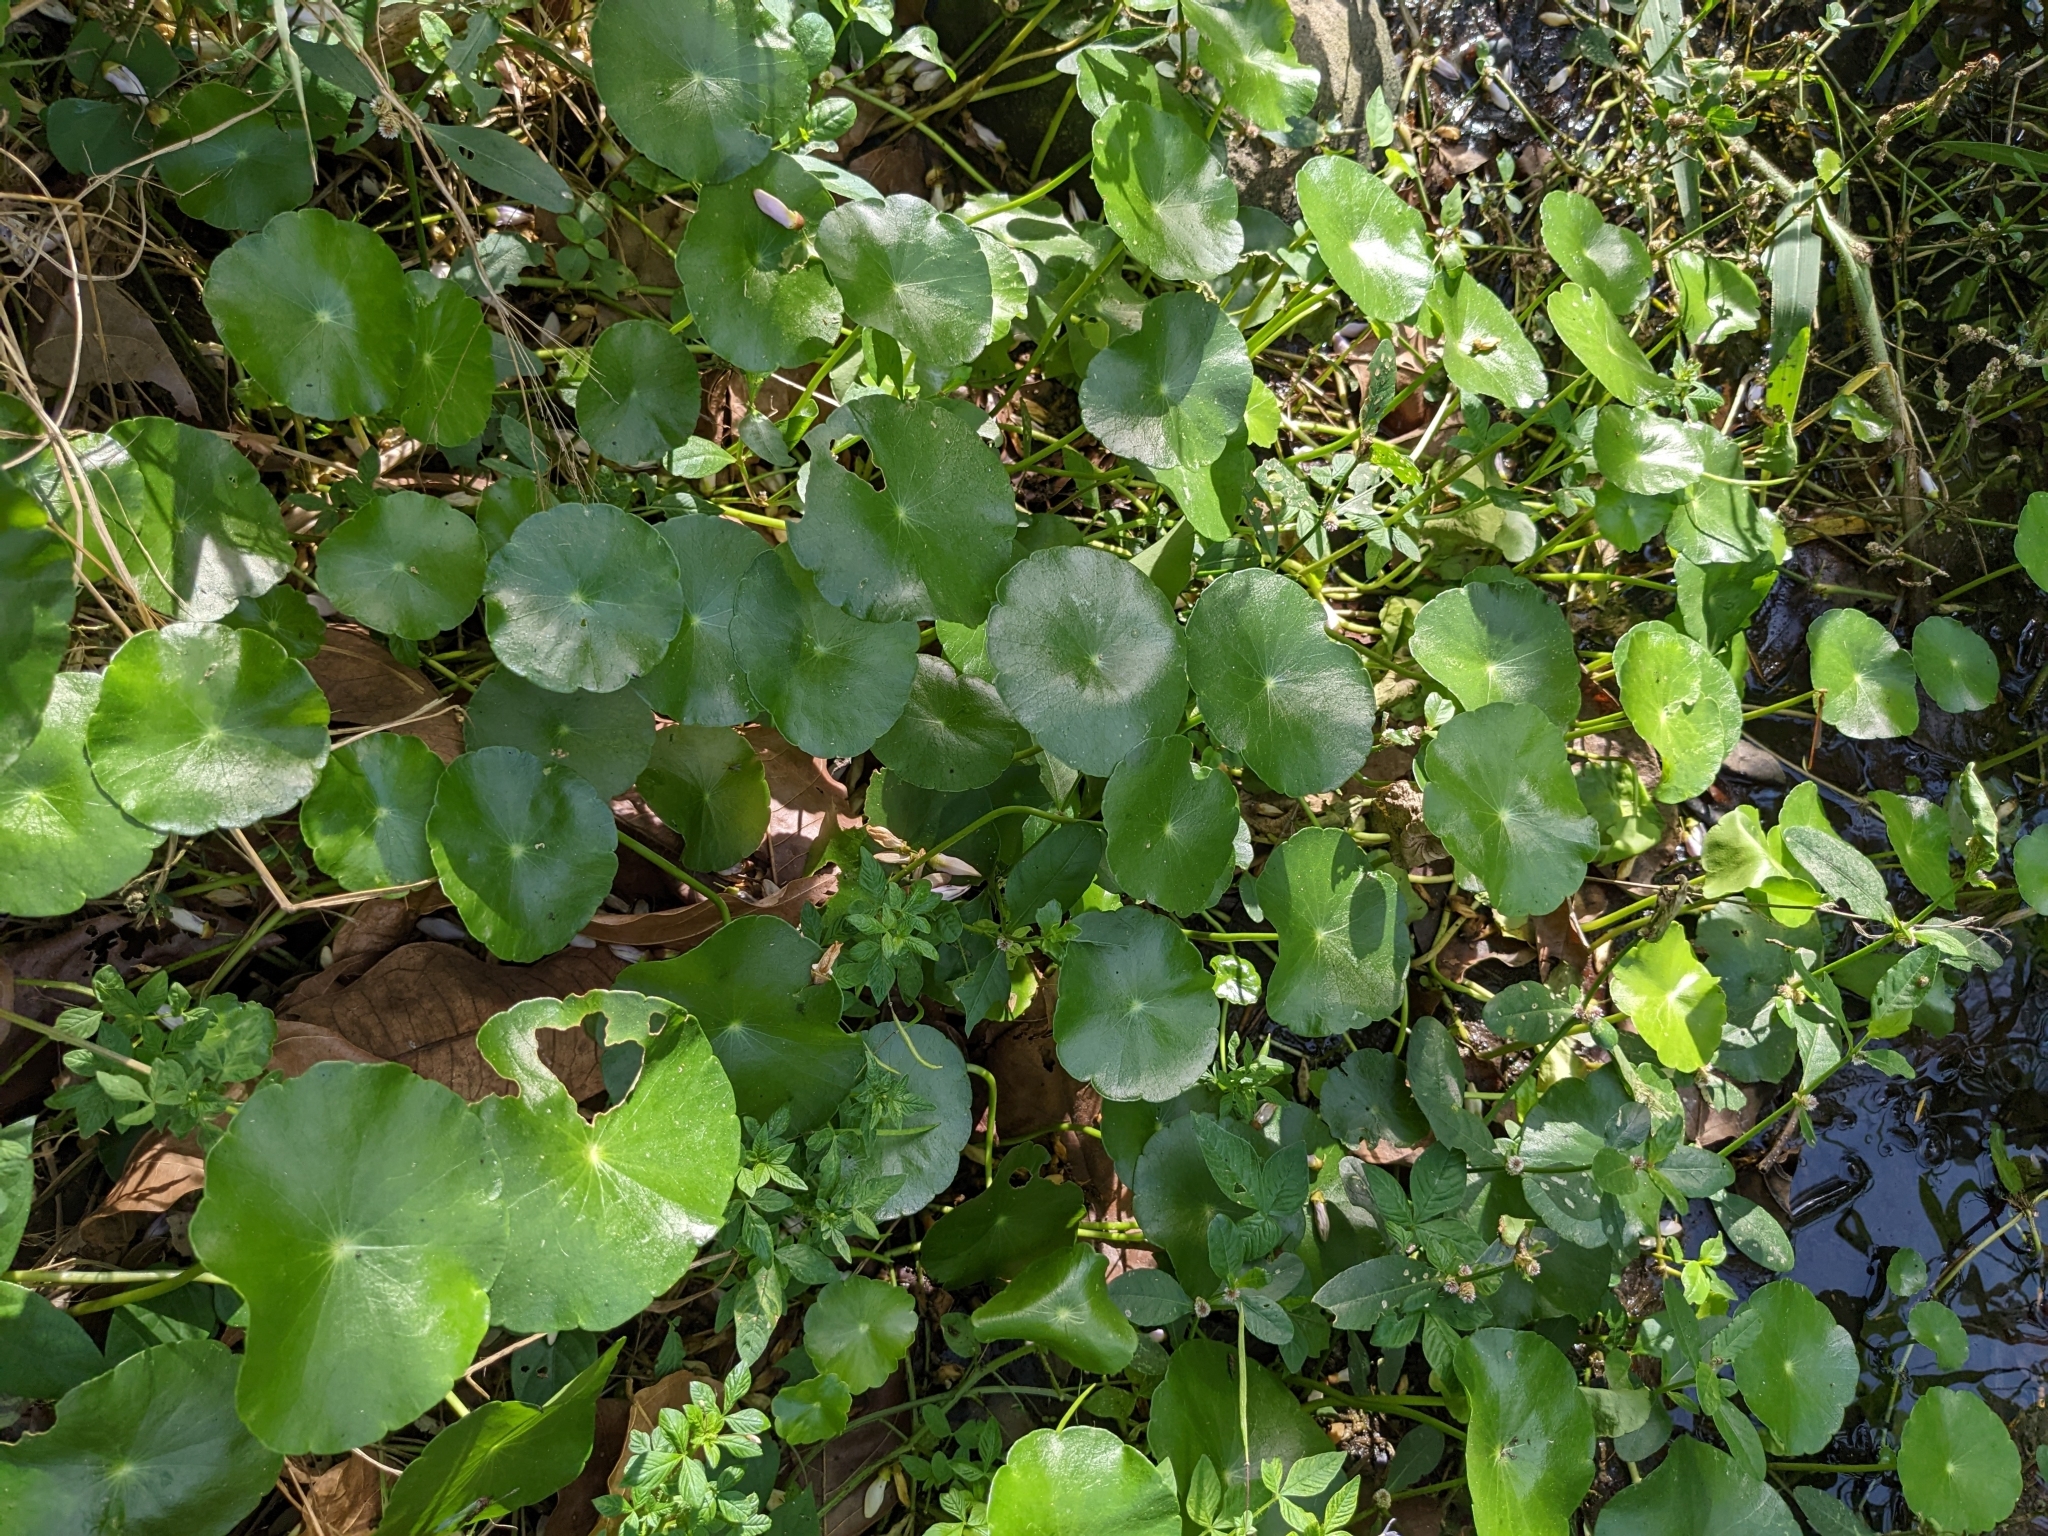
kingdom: Plantae
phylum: Tracheophyta
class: Magnoliopsida
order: Apiales
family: Araliaceae
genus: Hydrocotyle
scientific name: Hydrocotyle verticillata
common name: Whorled marshpennywort
